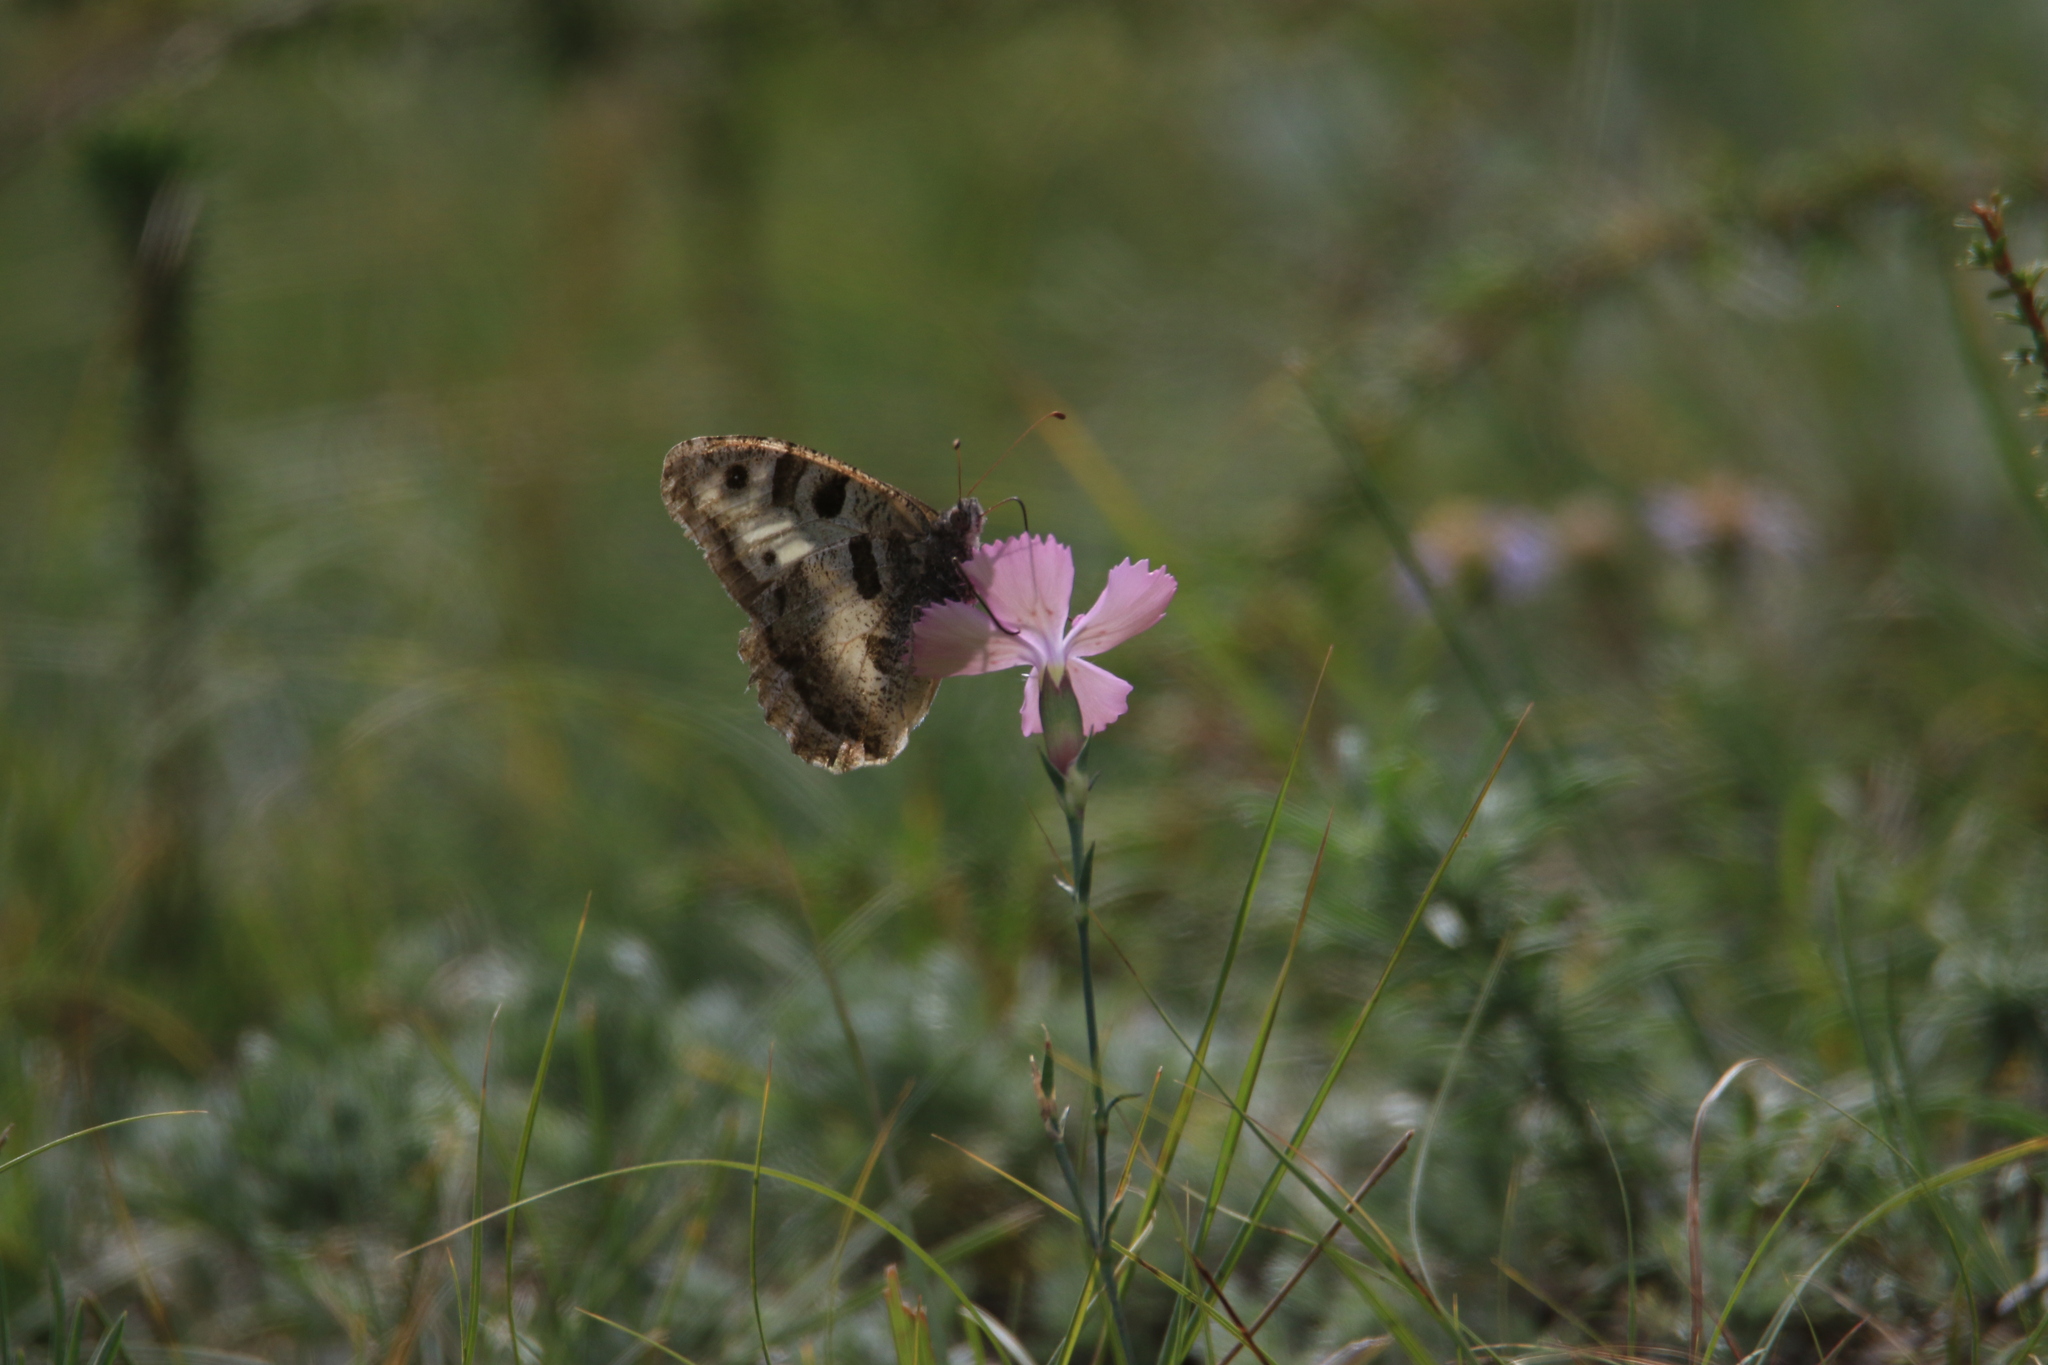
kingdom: Animalia
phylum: Arthropoda
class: Insecta
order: Lepidoptera
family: Nymphalidae
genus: Satyrus
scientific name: Satyrus briseis
